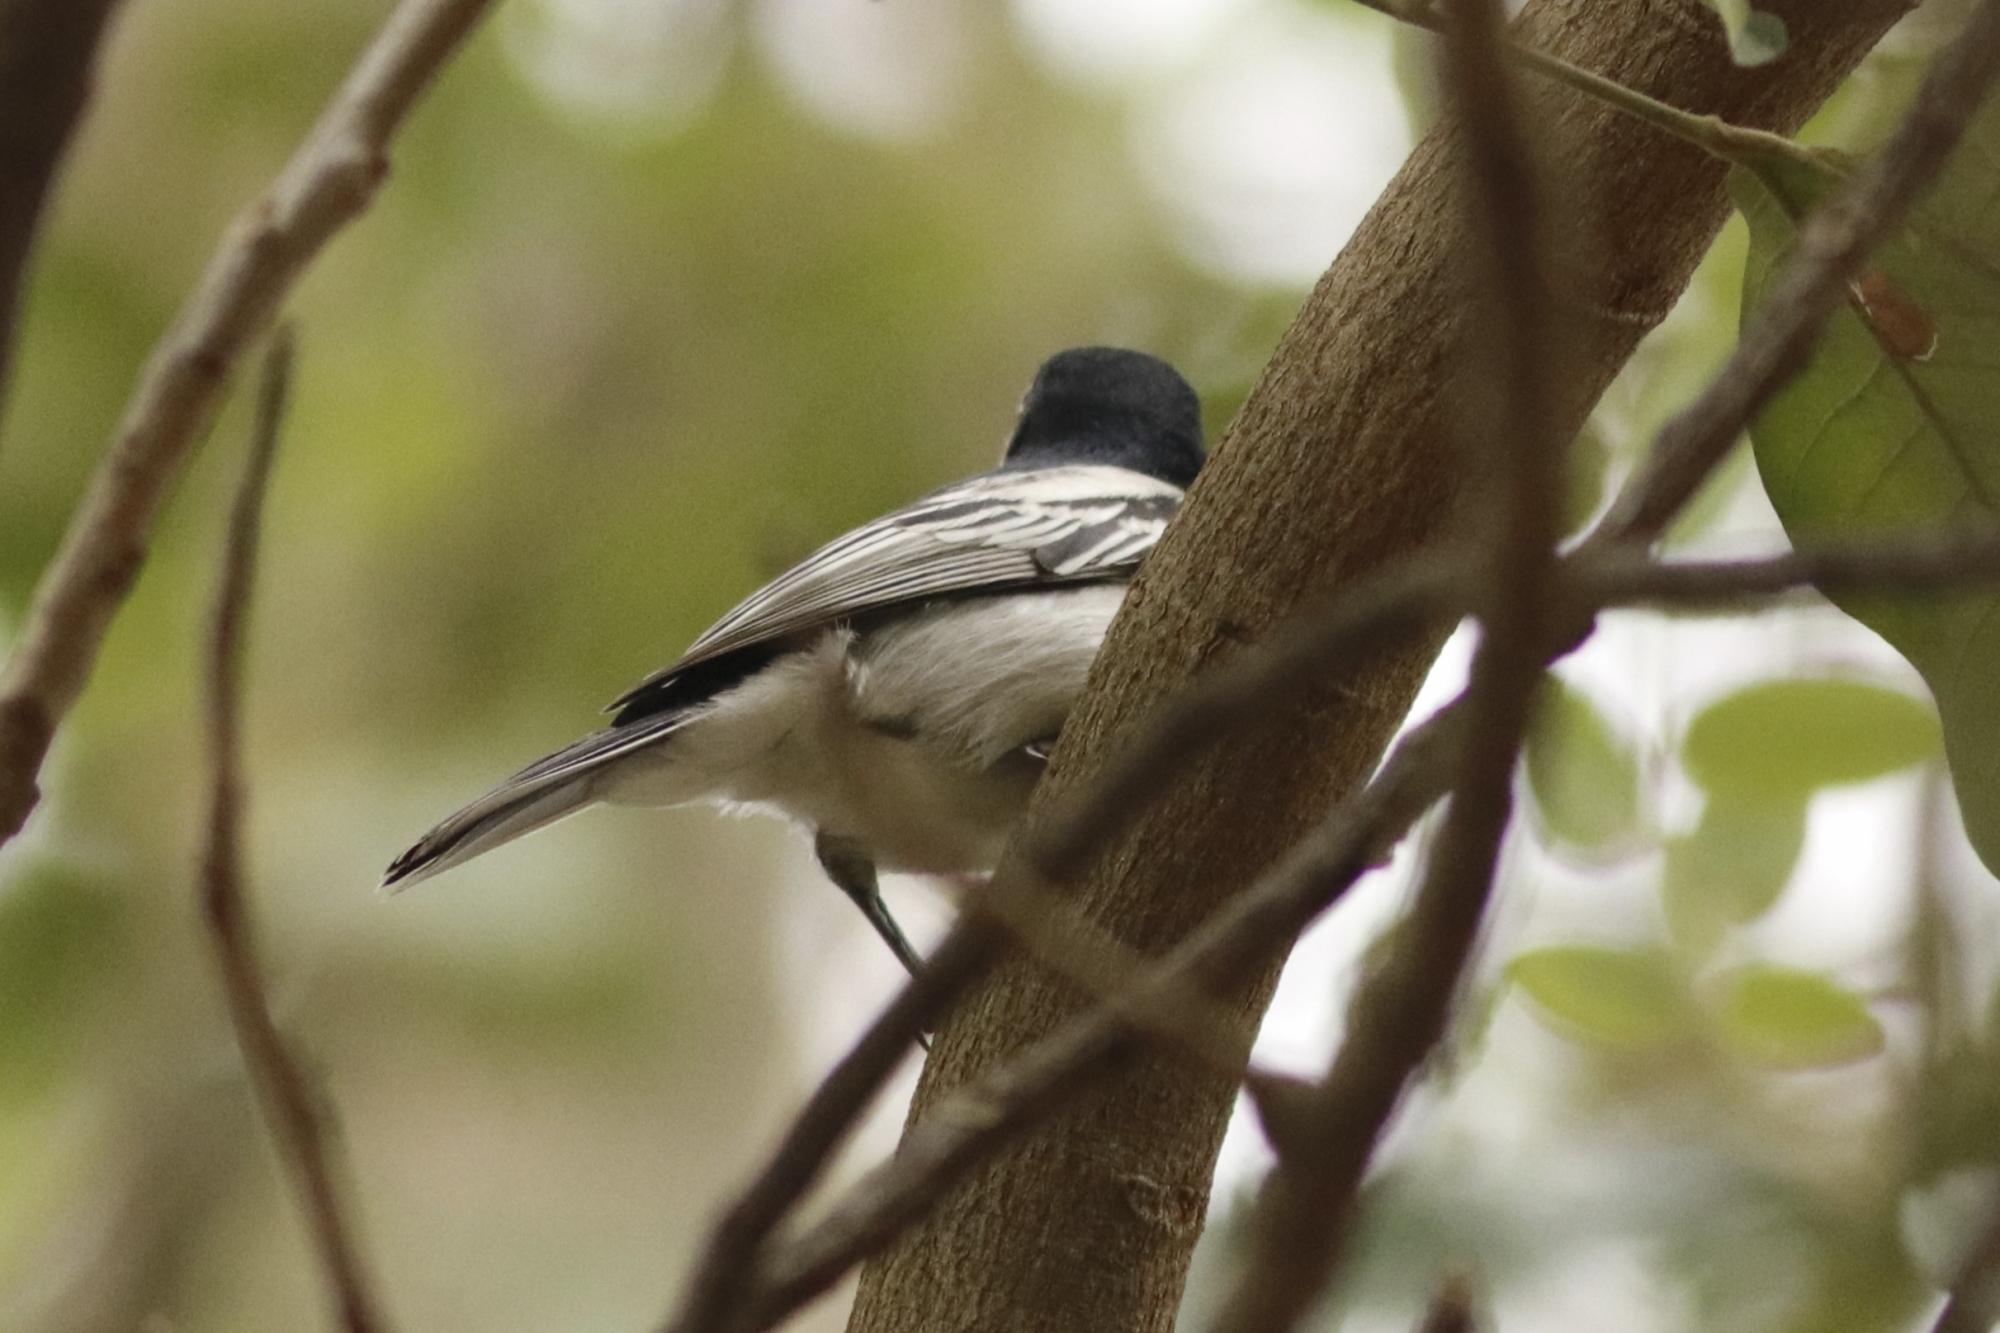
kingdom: Animalia
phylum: Chordata
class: Aves
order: Passeriformes
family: Malaconotidae
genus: Dryoscopus
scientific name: Dryoscopus cubla
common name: Black-backed puffback
